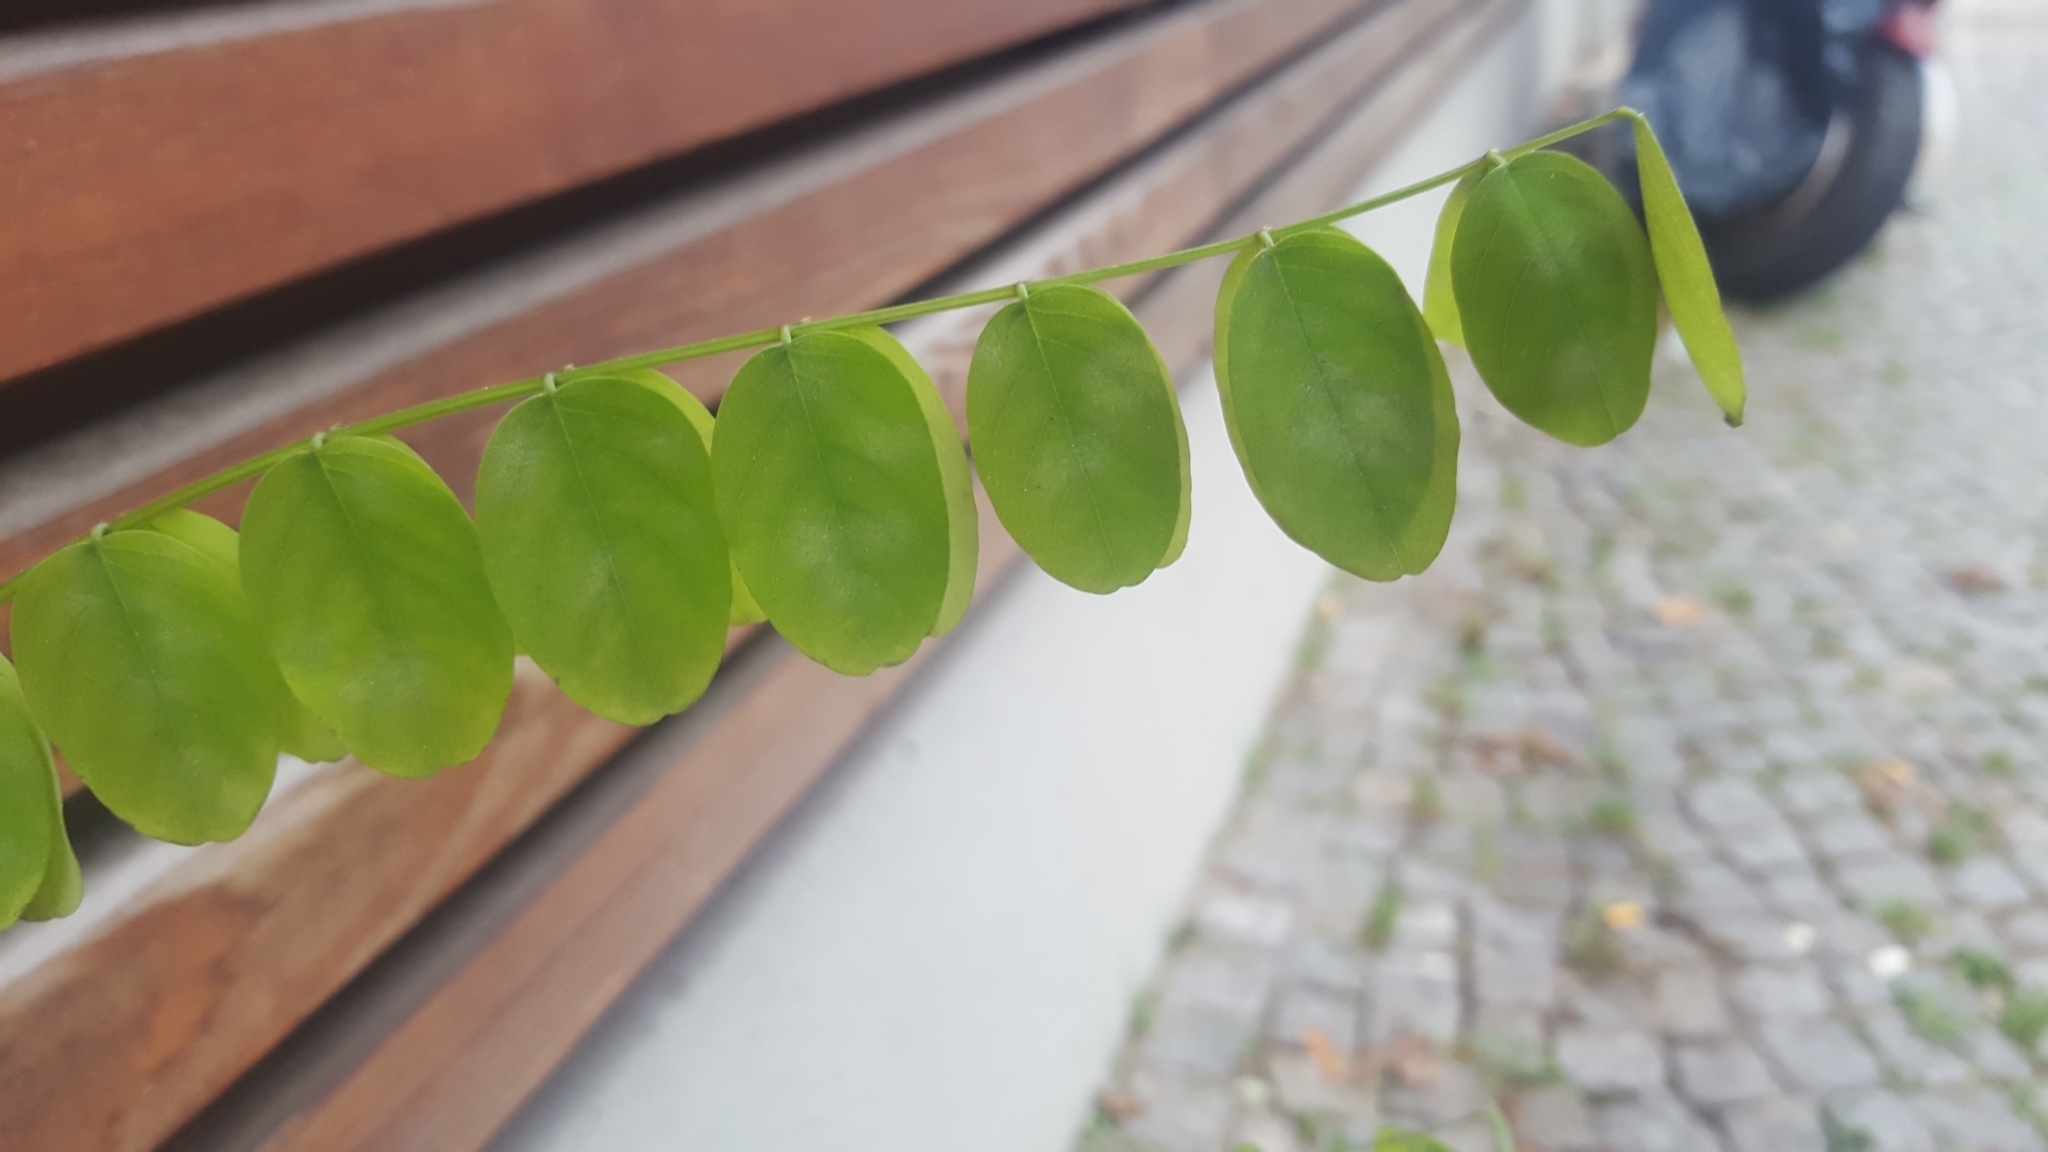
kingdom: Plantae
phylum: Tracheophyta
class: Magnoliopsida
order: Fabales
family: Fabaceae
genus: Robinia
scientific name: Robinia pseudoacacia
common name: Black locust
